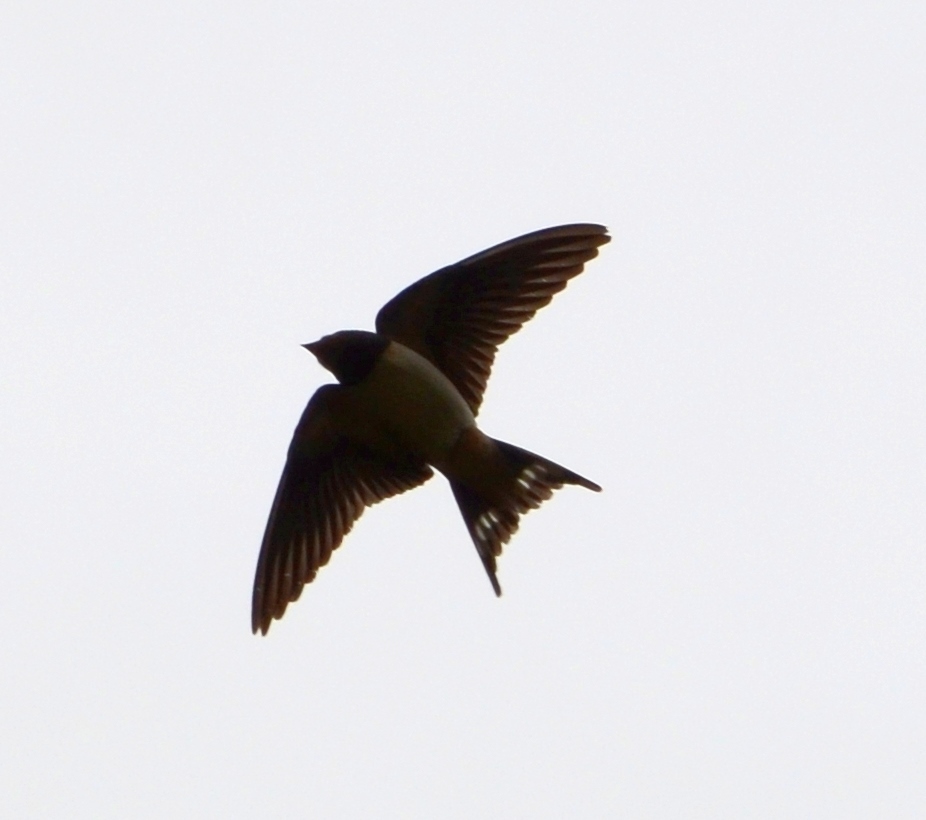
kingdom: Animalia
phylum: Chordata
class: Aves
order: Passeriformes
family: Hirundinidae
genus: Hirundo
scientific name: Hirundo rustica
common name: Barn swallow
